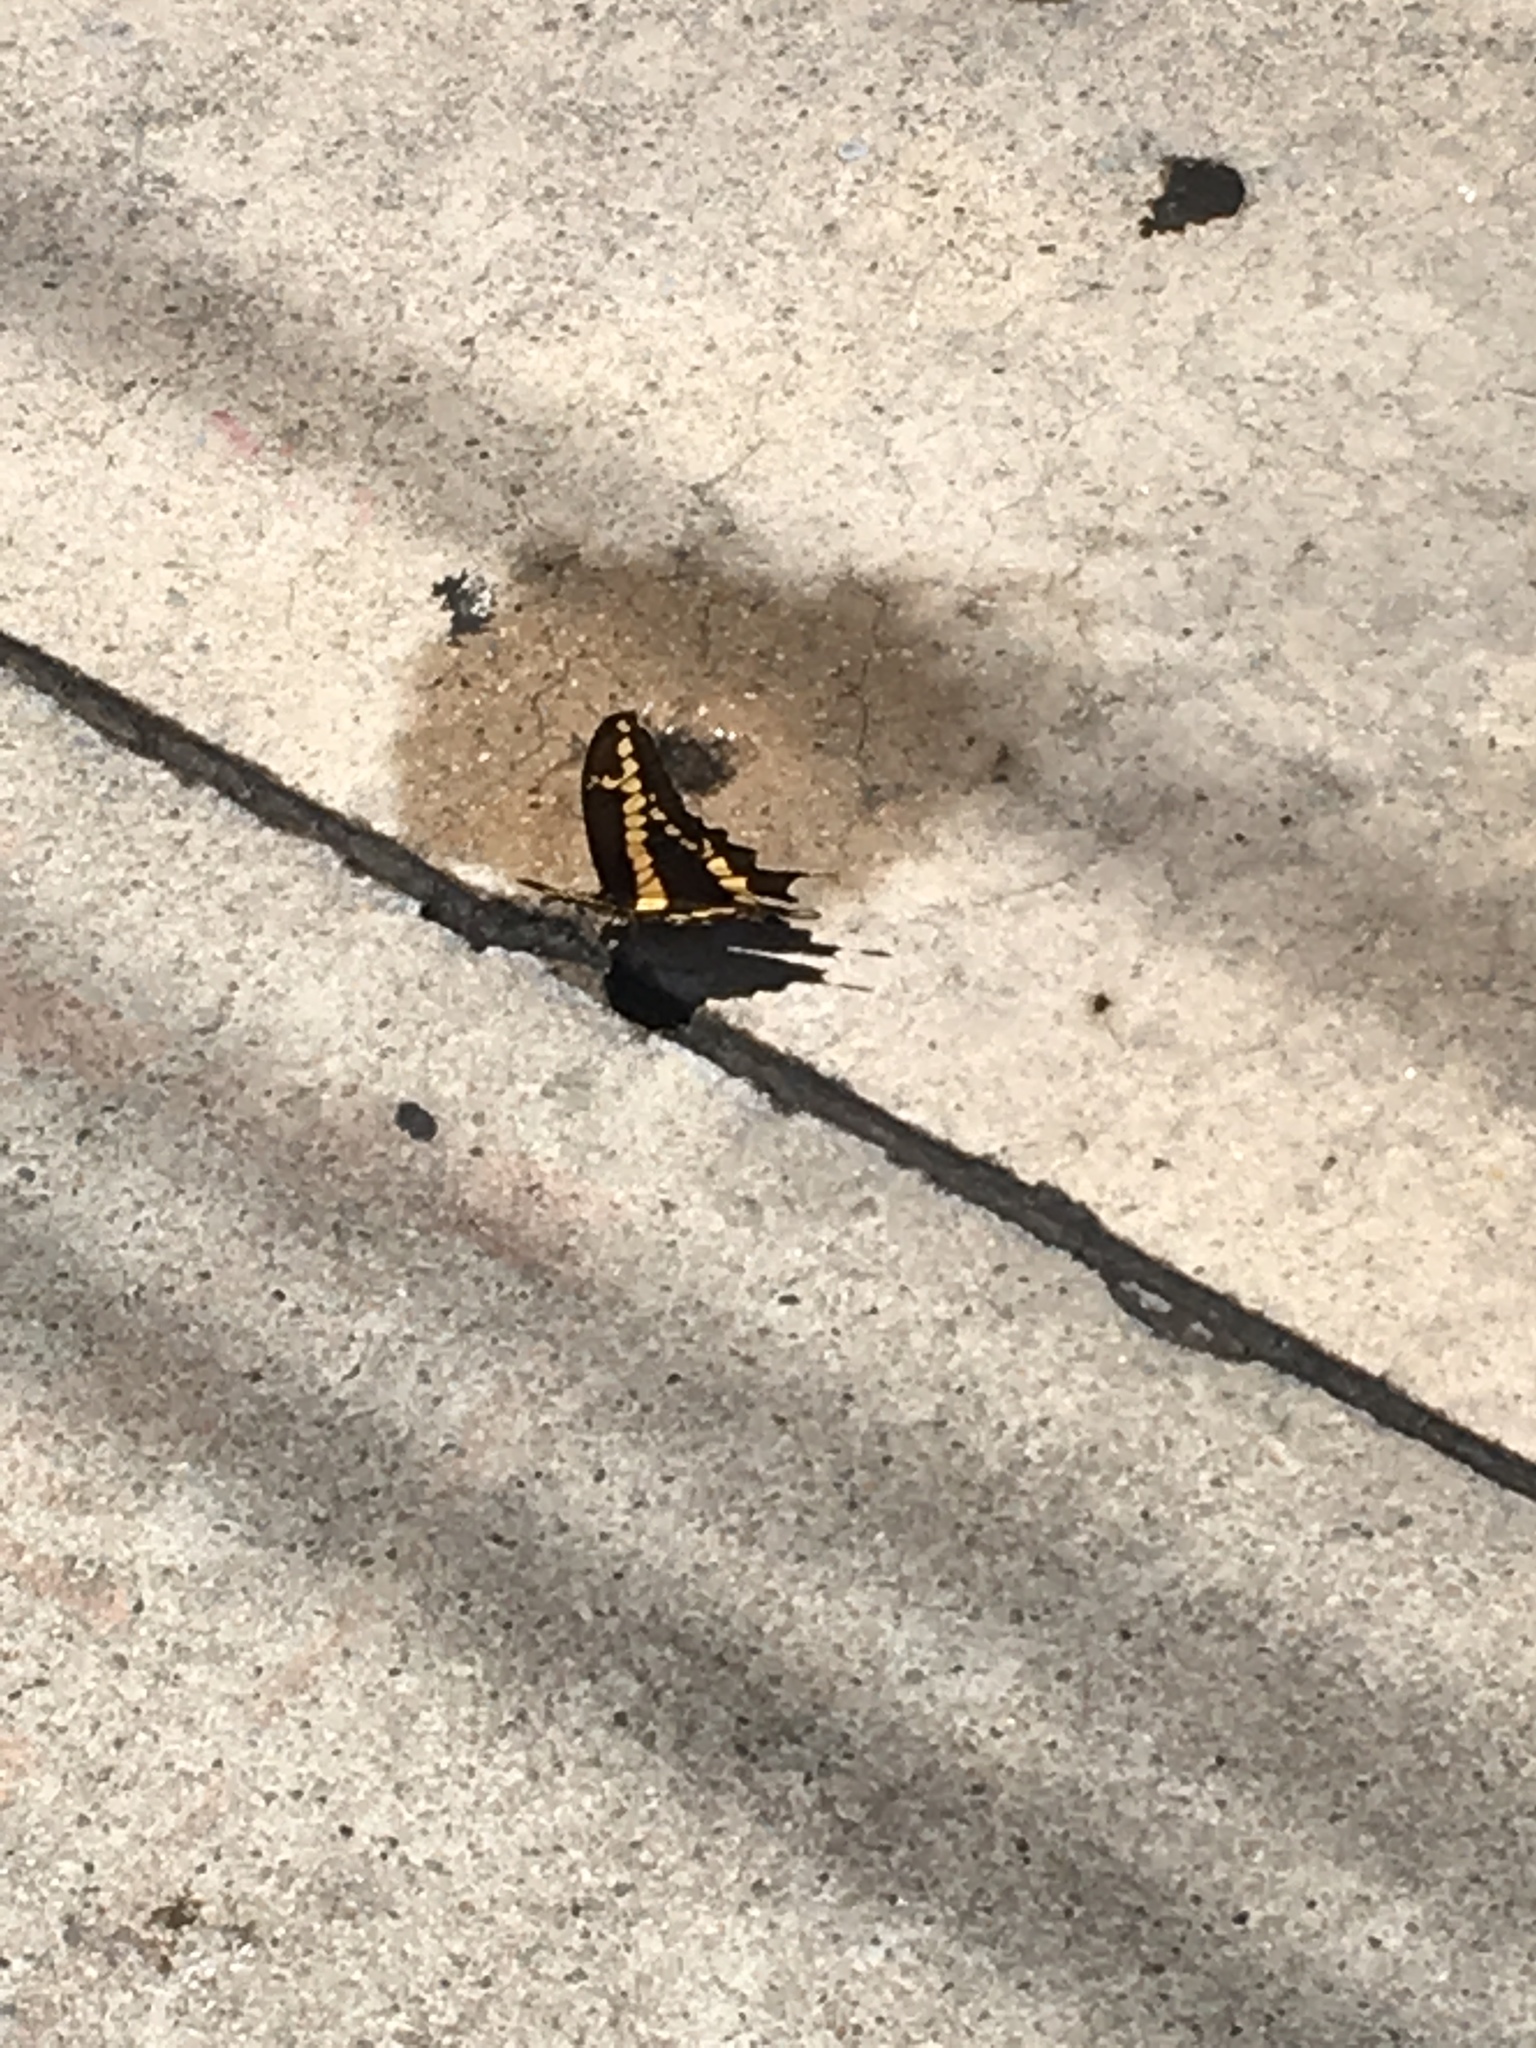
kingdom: Animalia
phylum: Arthropoda
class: Insecta
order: Lepidoptera
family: Papilionidae
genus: Papilio
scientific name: Papilio rumiko
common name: Western giant swallowtail
